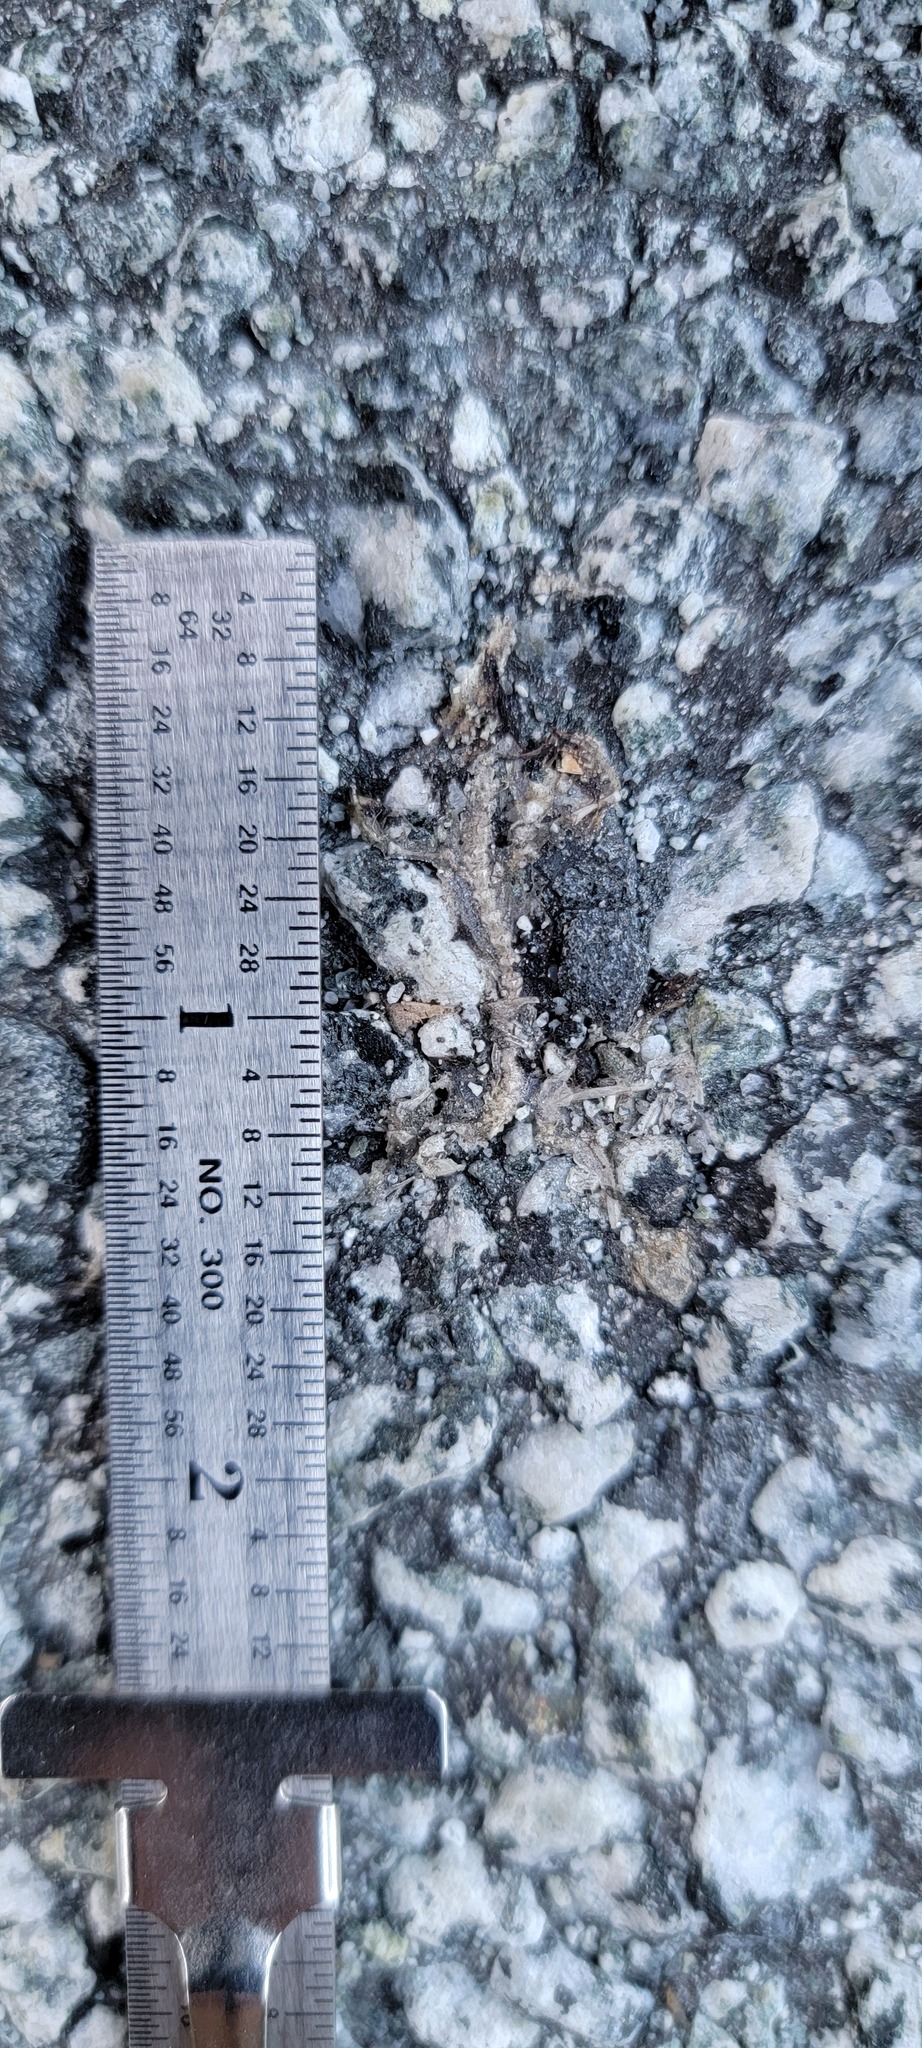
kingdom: Animalia
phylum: Chordata
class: Amphibia
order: Caudata
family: Salamandridae
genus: Taricha
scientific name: Taricha
